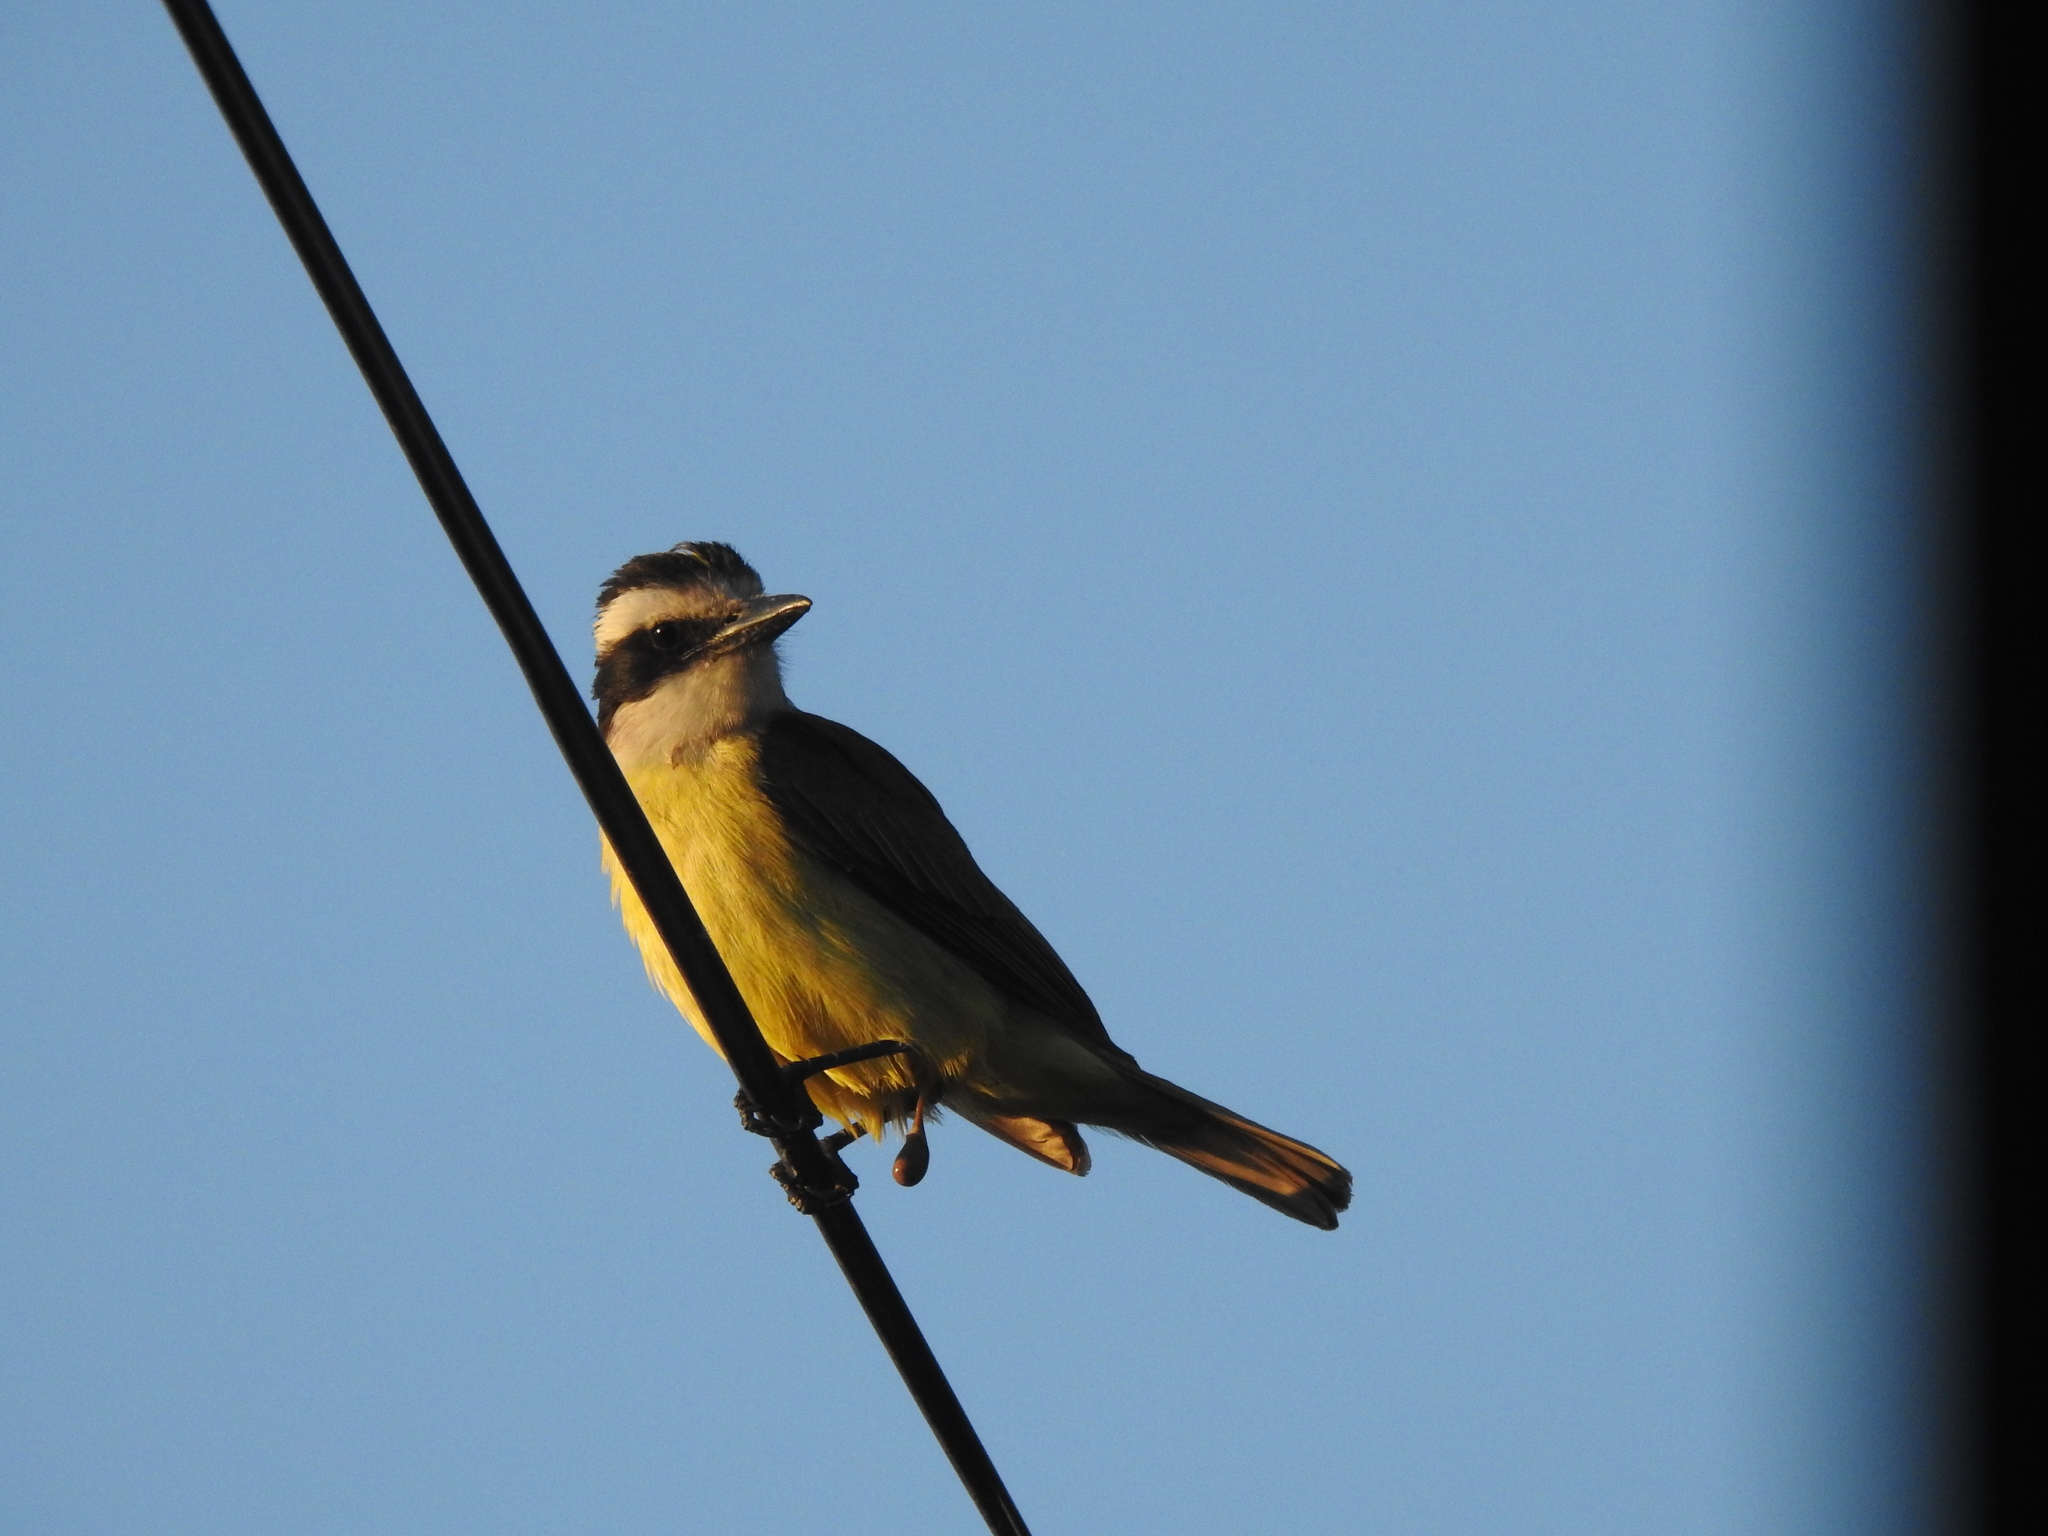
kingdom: Animalia
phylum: Chordata
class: Aves
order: Passeriformes
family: Tyrannidae
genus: Pitangus
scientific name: Pitangus sulphuratus
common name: Great kiskadee
